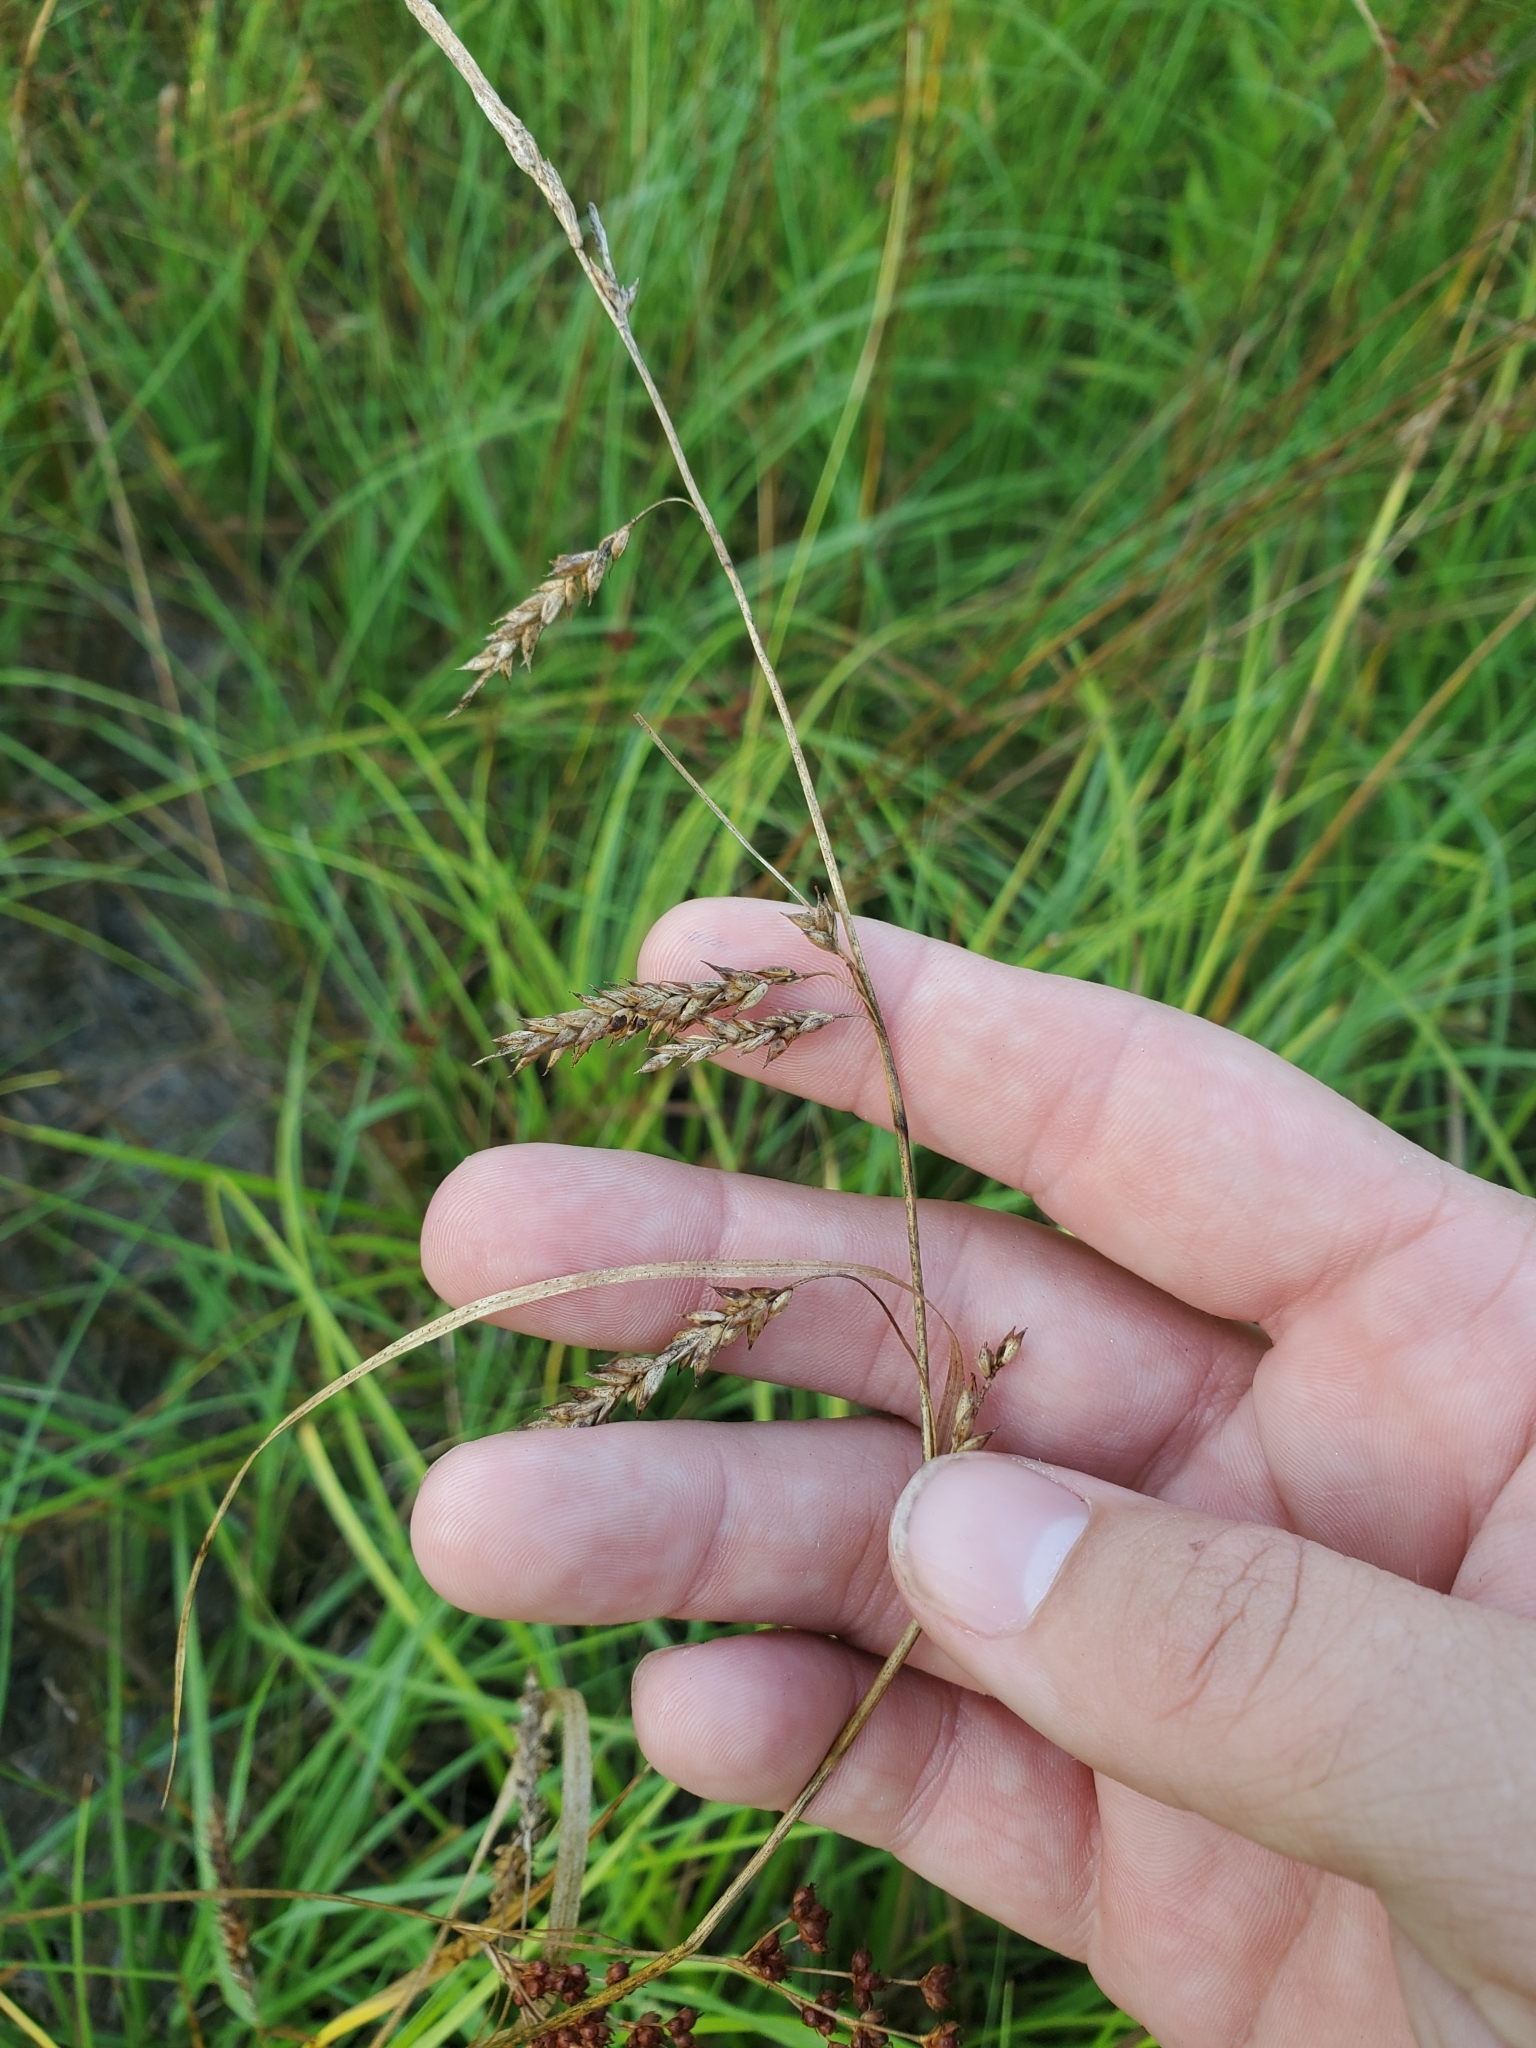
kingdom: Plantae
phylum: Tracheophyta
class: Liliopsida
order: Poales
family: Cyperaceae
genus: Carex
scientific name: Carex cherokeensis
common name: Cherokee sedge
